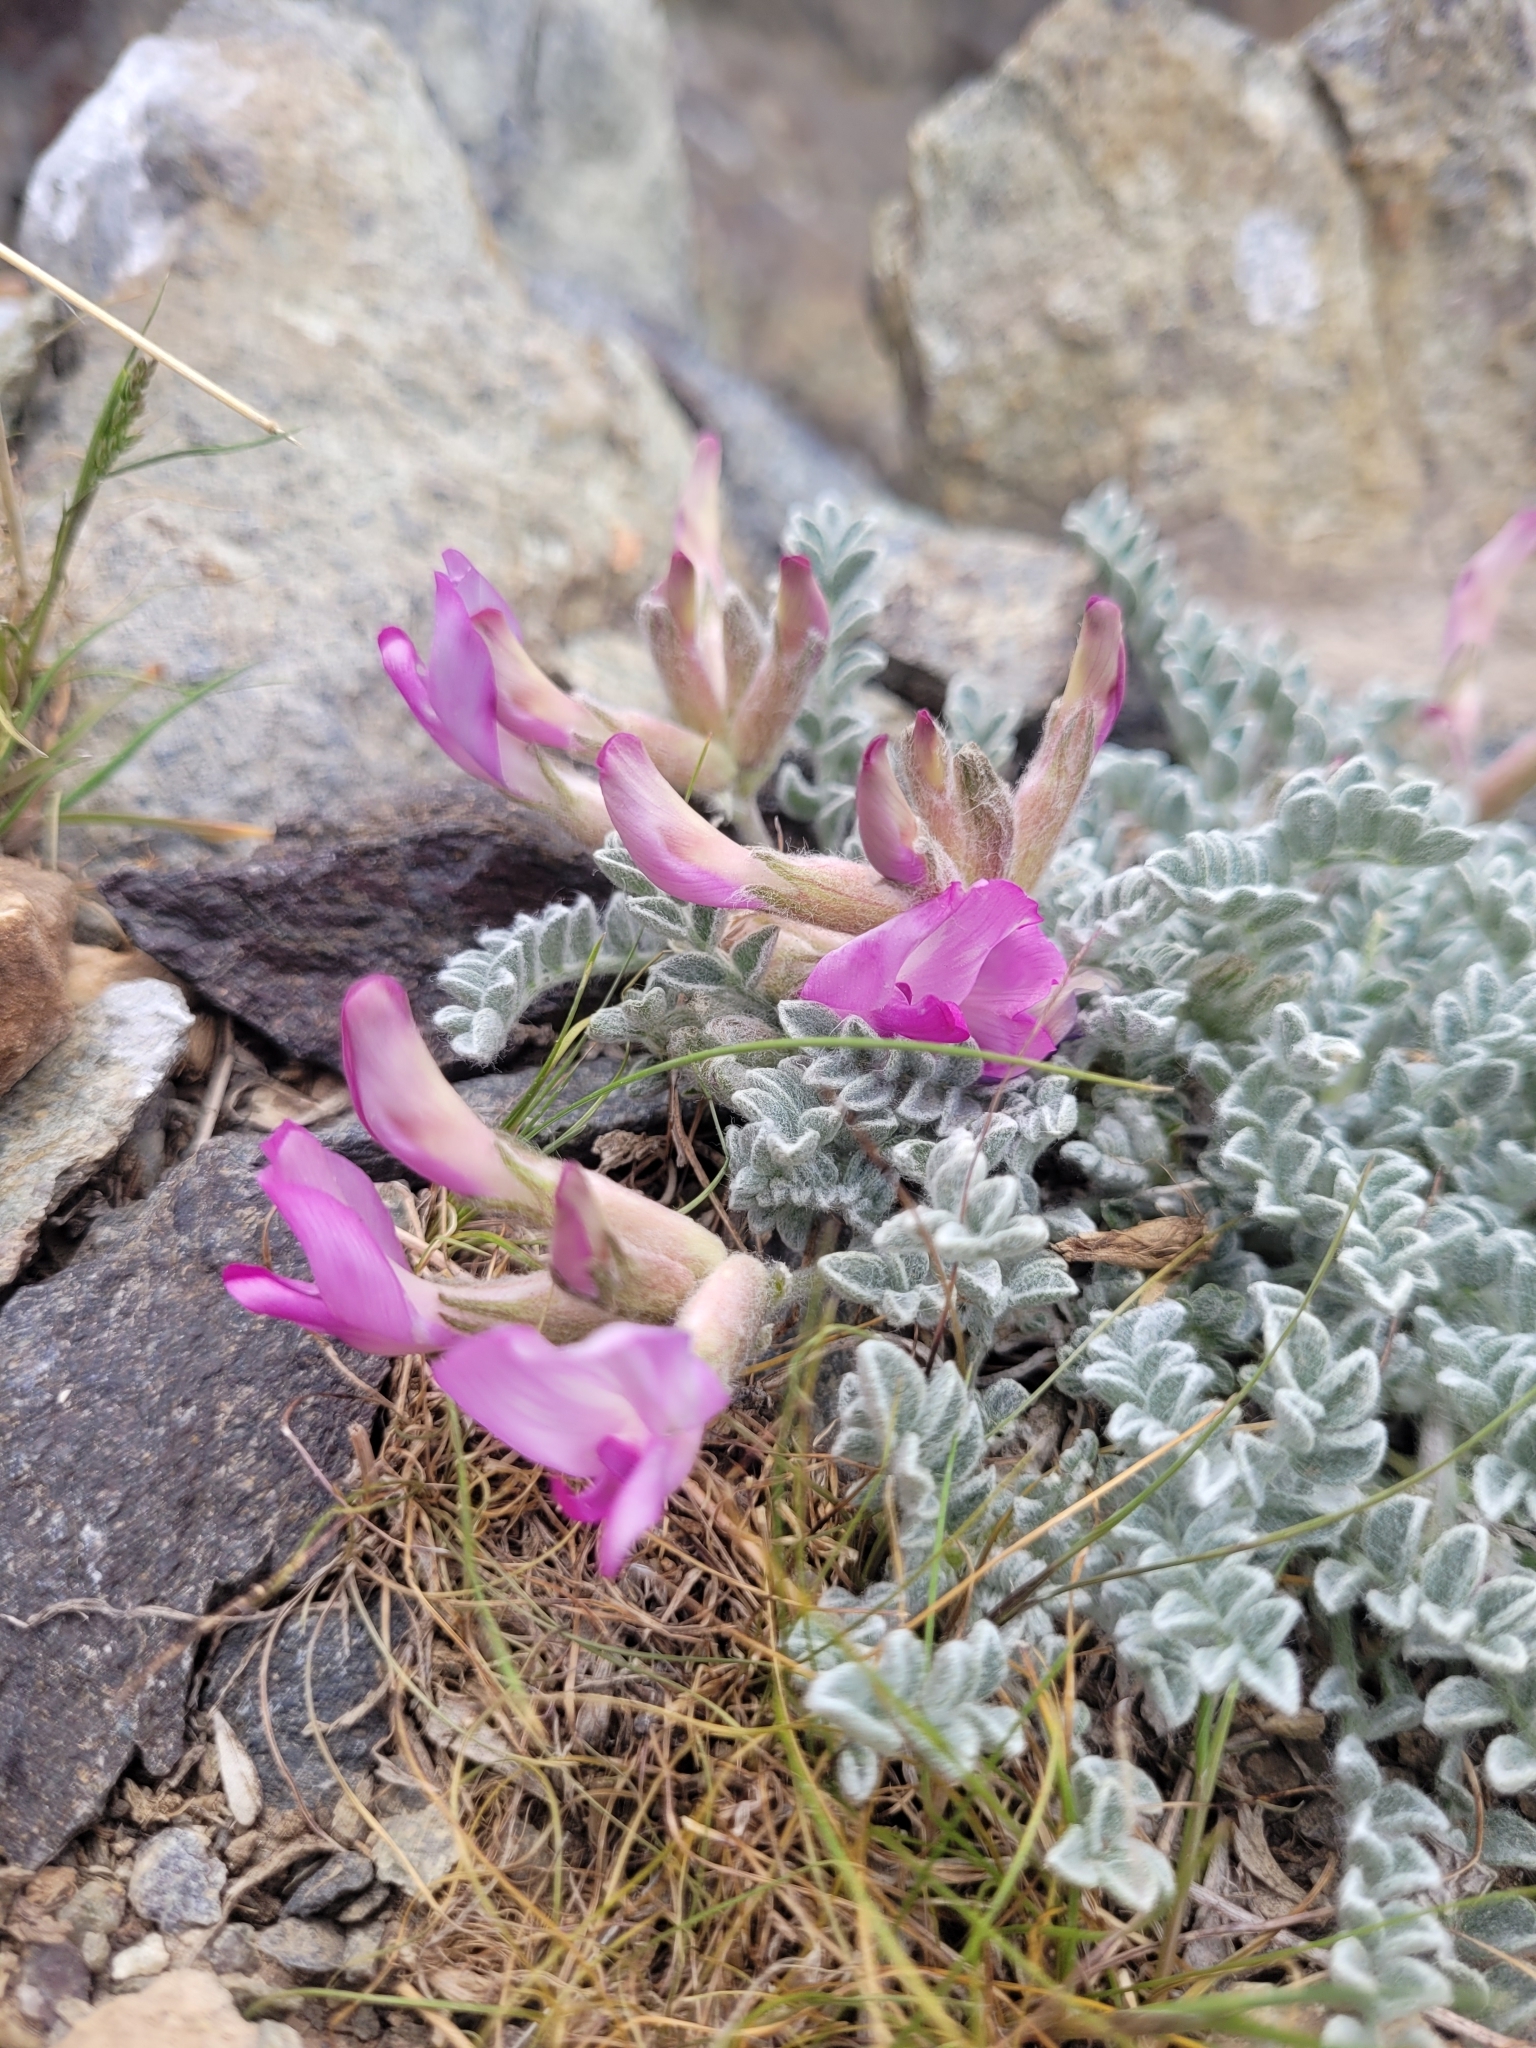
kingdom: Plantae
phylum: Tracheophyta
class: Magnoliopsida
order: Fabales
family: Fabaceae
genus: Astragalus
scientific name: Astragalus utahensis
